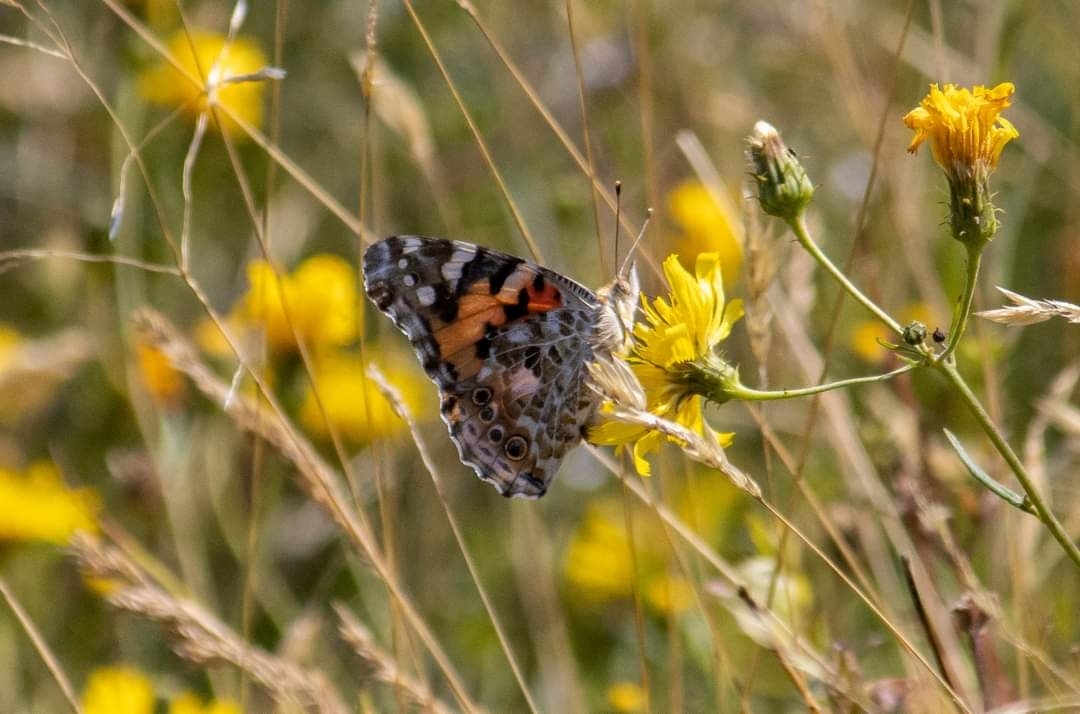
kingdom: Animalia
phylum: Arthropoda
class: Insecta
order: Lepidoptera
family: Nymphalidae
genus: Vanessa
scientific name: Vanessa cardui
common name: Painted lady
